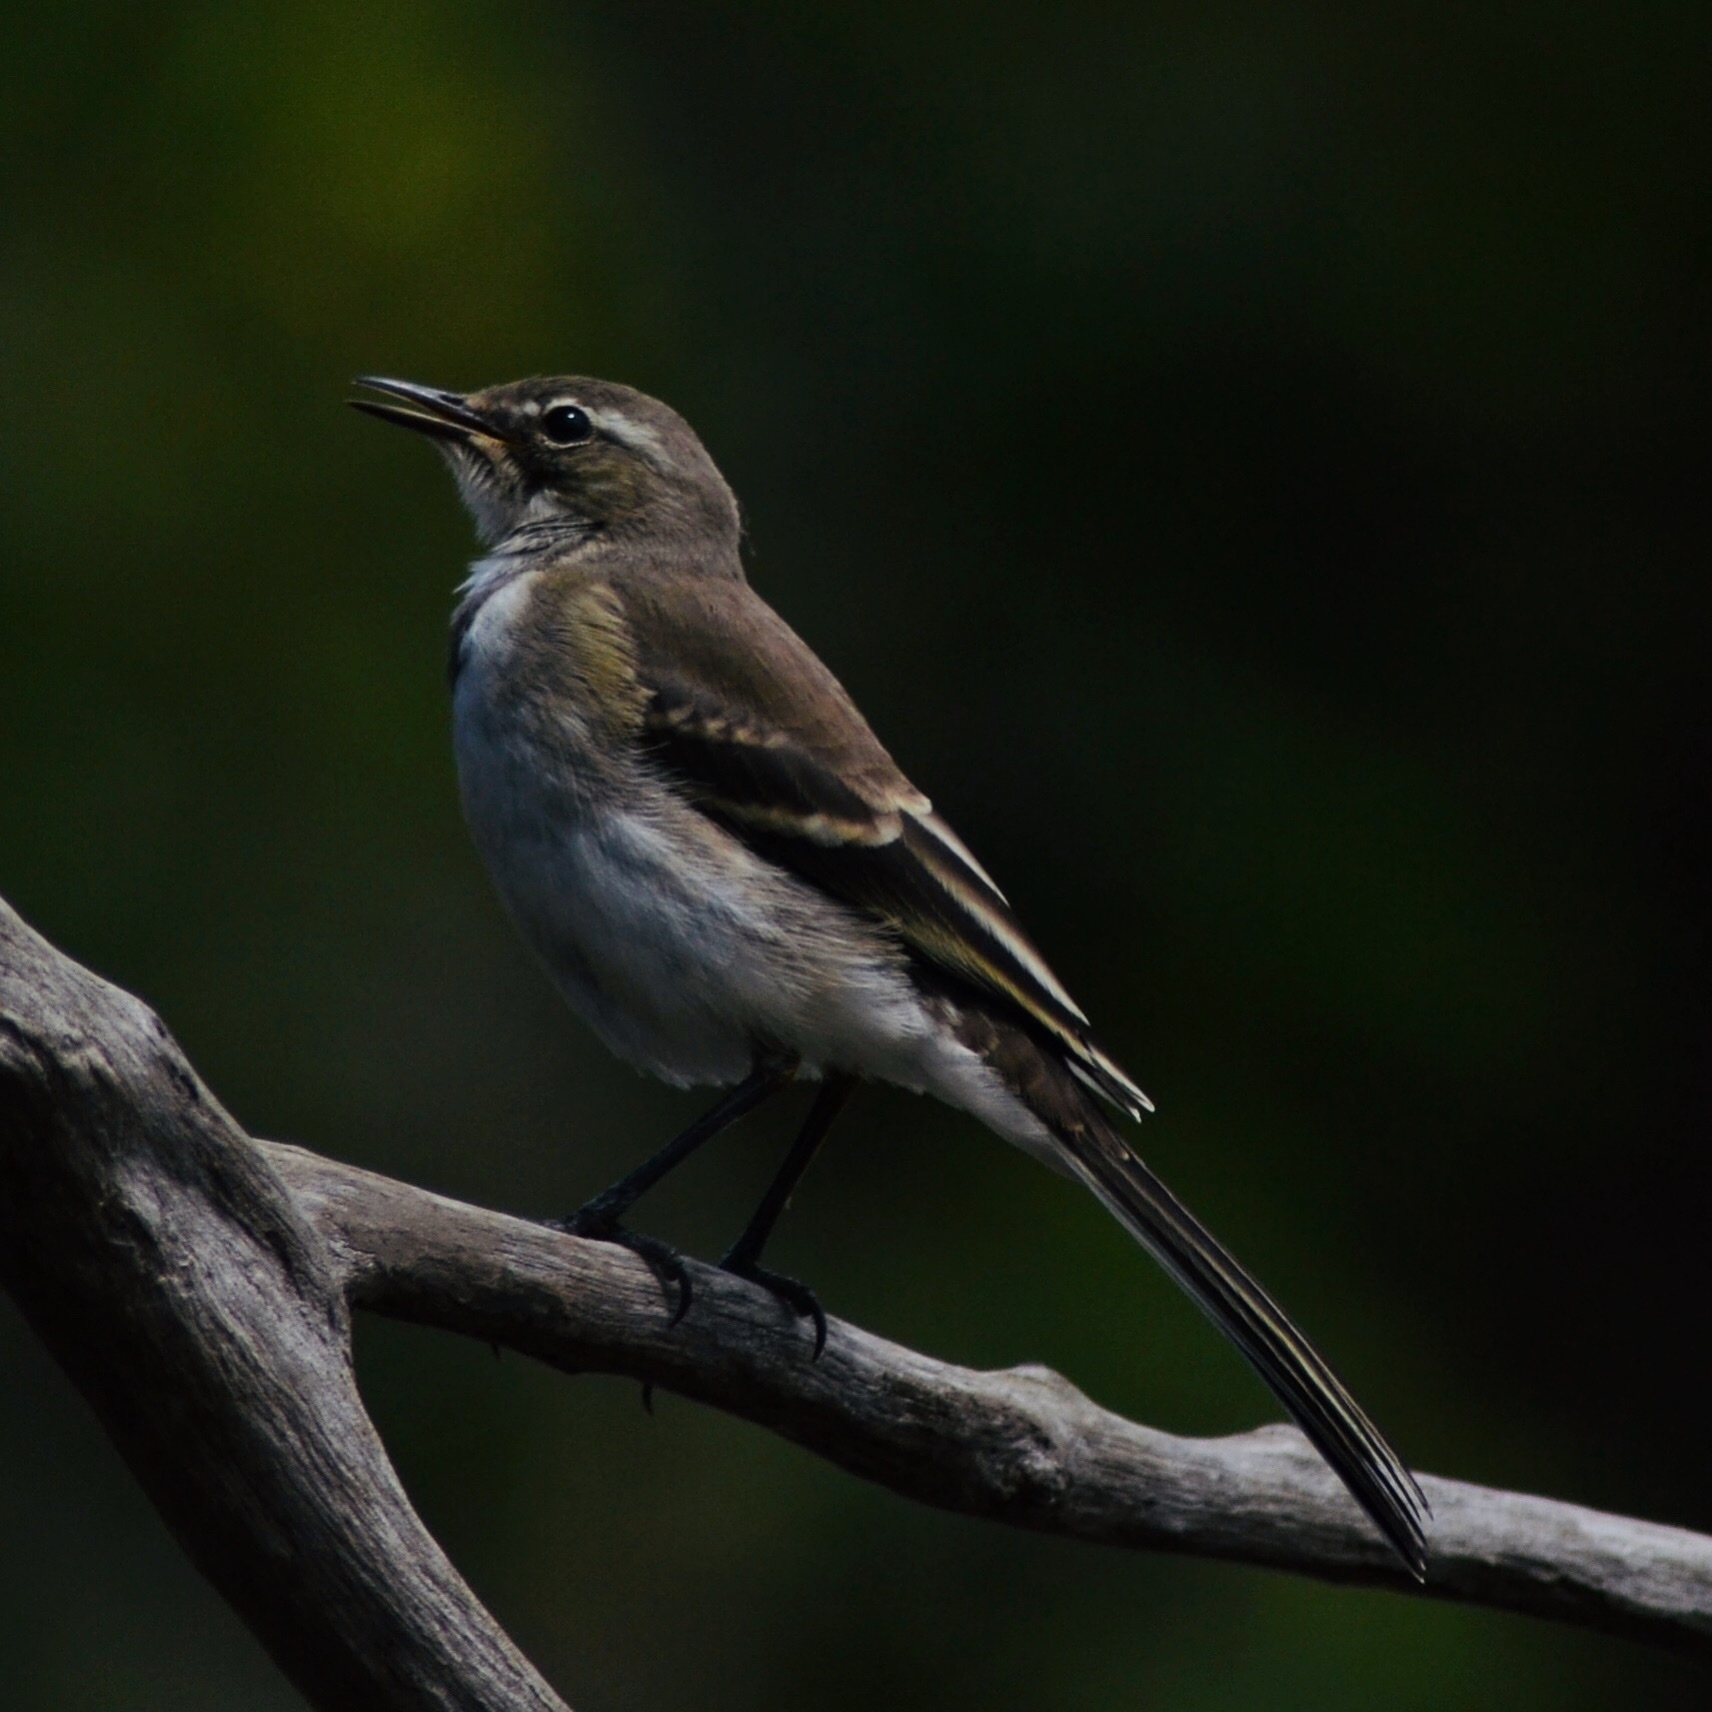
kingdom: Animalia
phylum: Chordata
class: Aves
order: Passeriformes
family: Motacillidae
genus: Motacilla
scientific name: Motacilla capensis
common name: Cape wagtail
